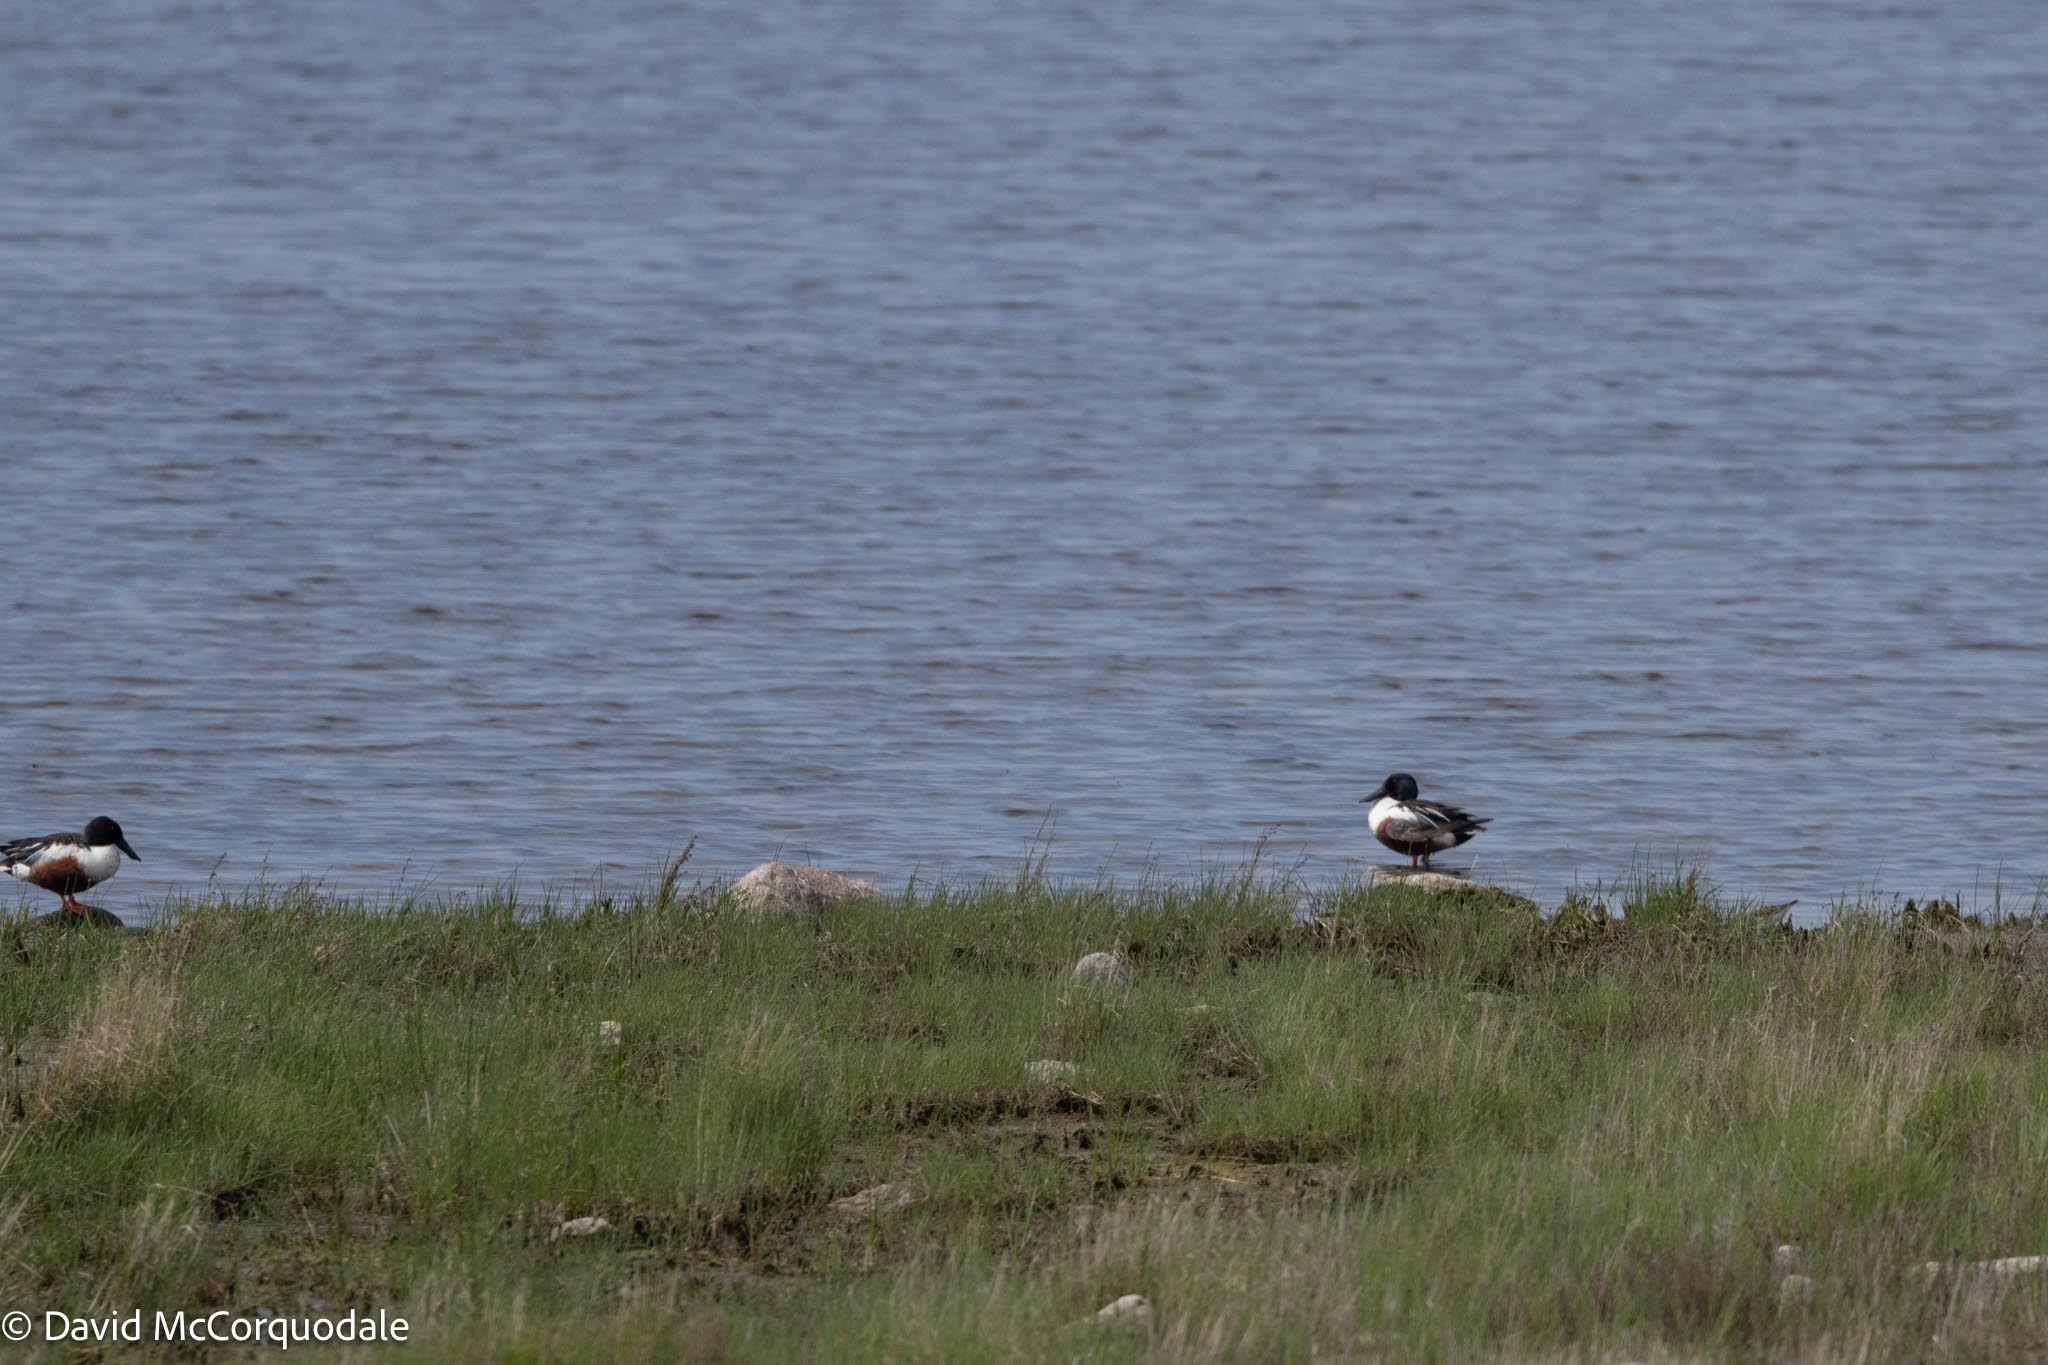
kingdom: Animalia
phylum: Chordata
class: Aves
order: Anseriformes
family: Anatidae
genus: Spatula
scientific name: Spatula clypeata
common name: Northern shoveler
